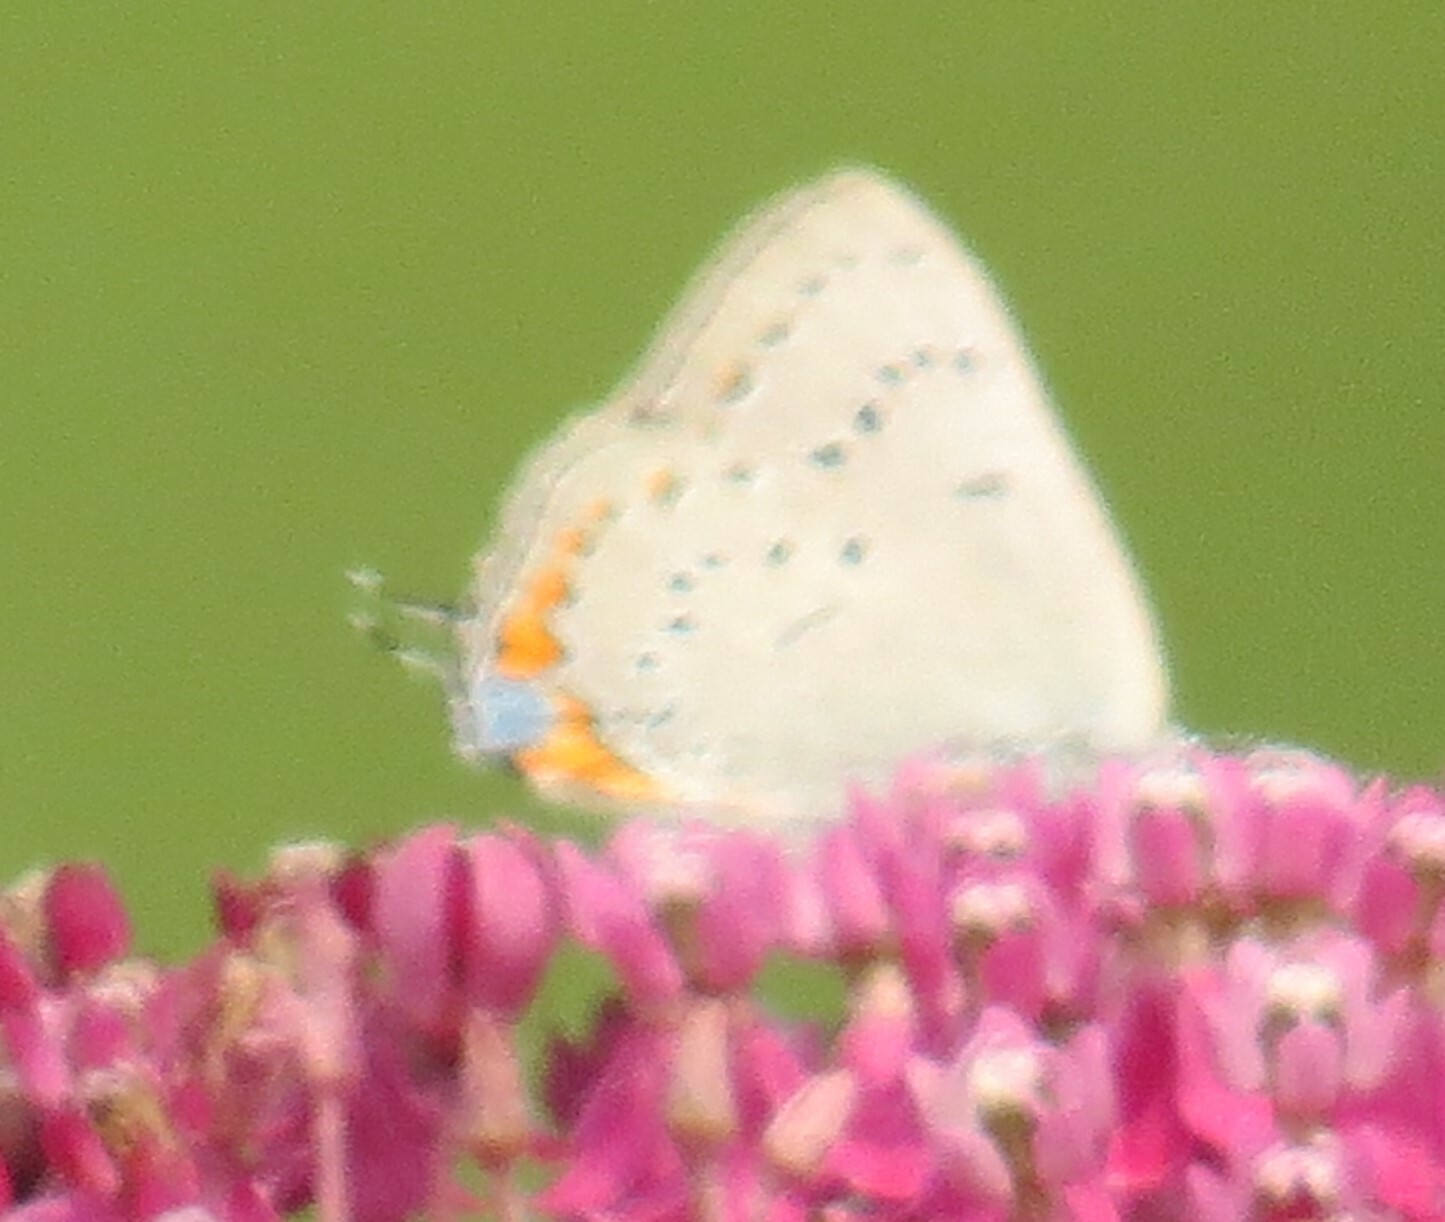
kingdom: Animalia
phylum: Arthropoda
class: Insecta
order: Lepidoptera
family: Lycaenidae
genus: Strymon
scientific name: Strymon acadica
